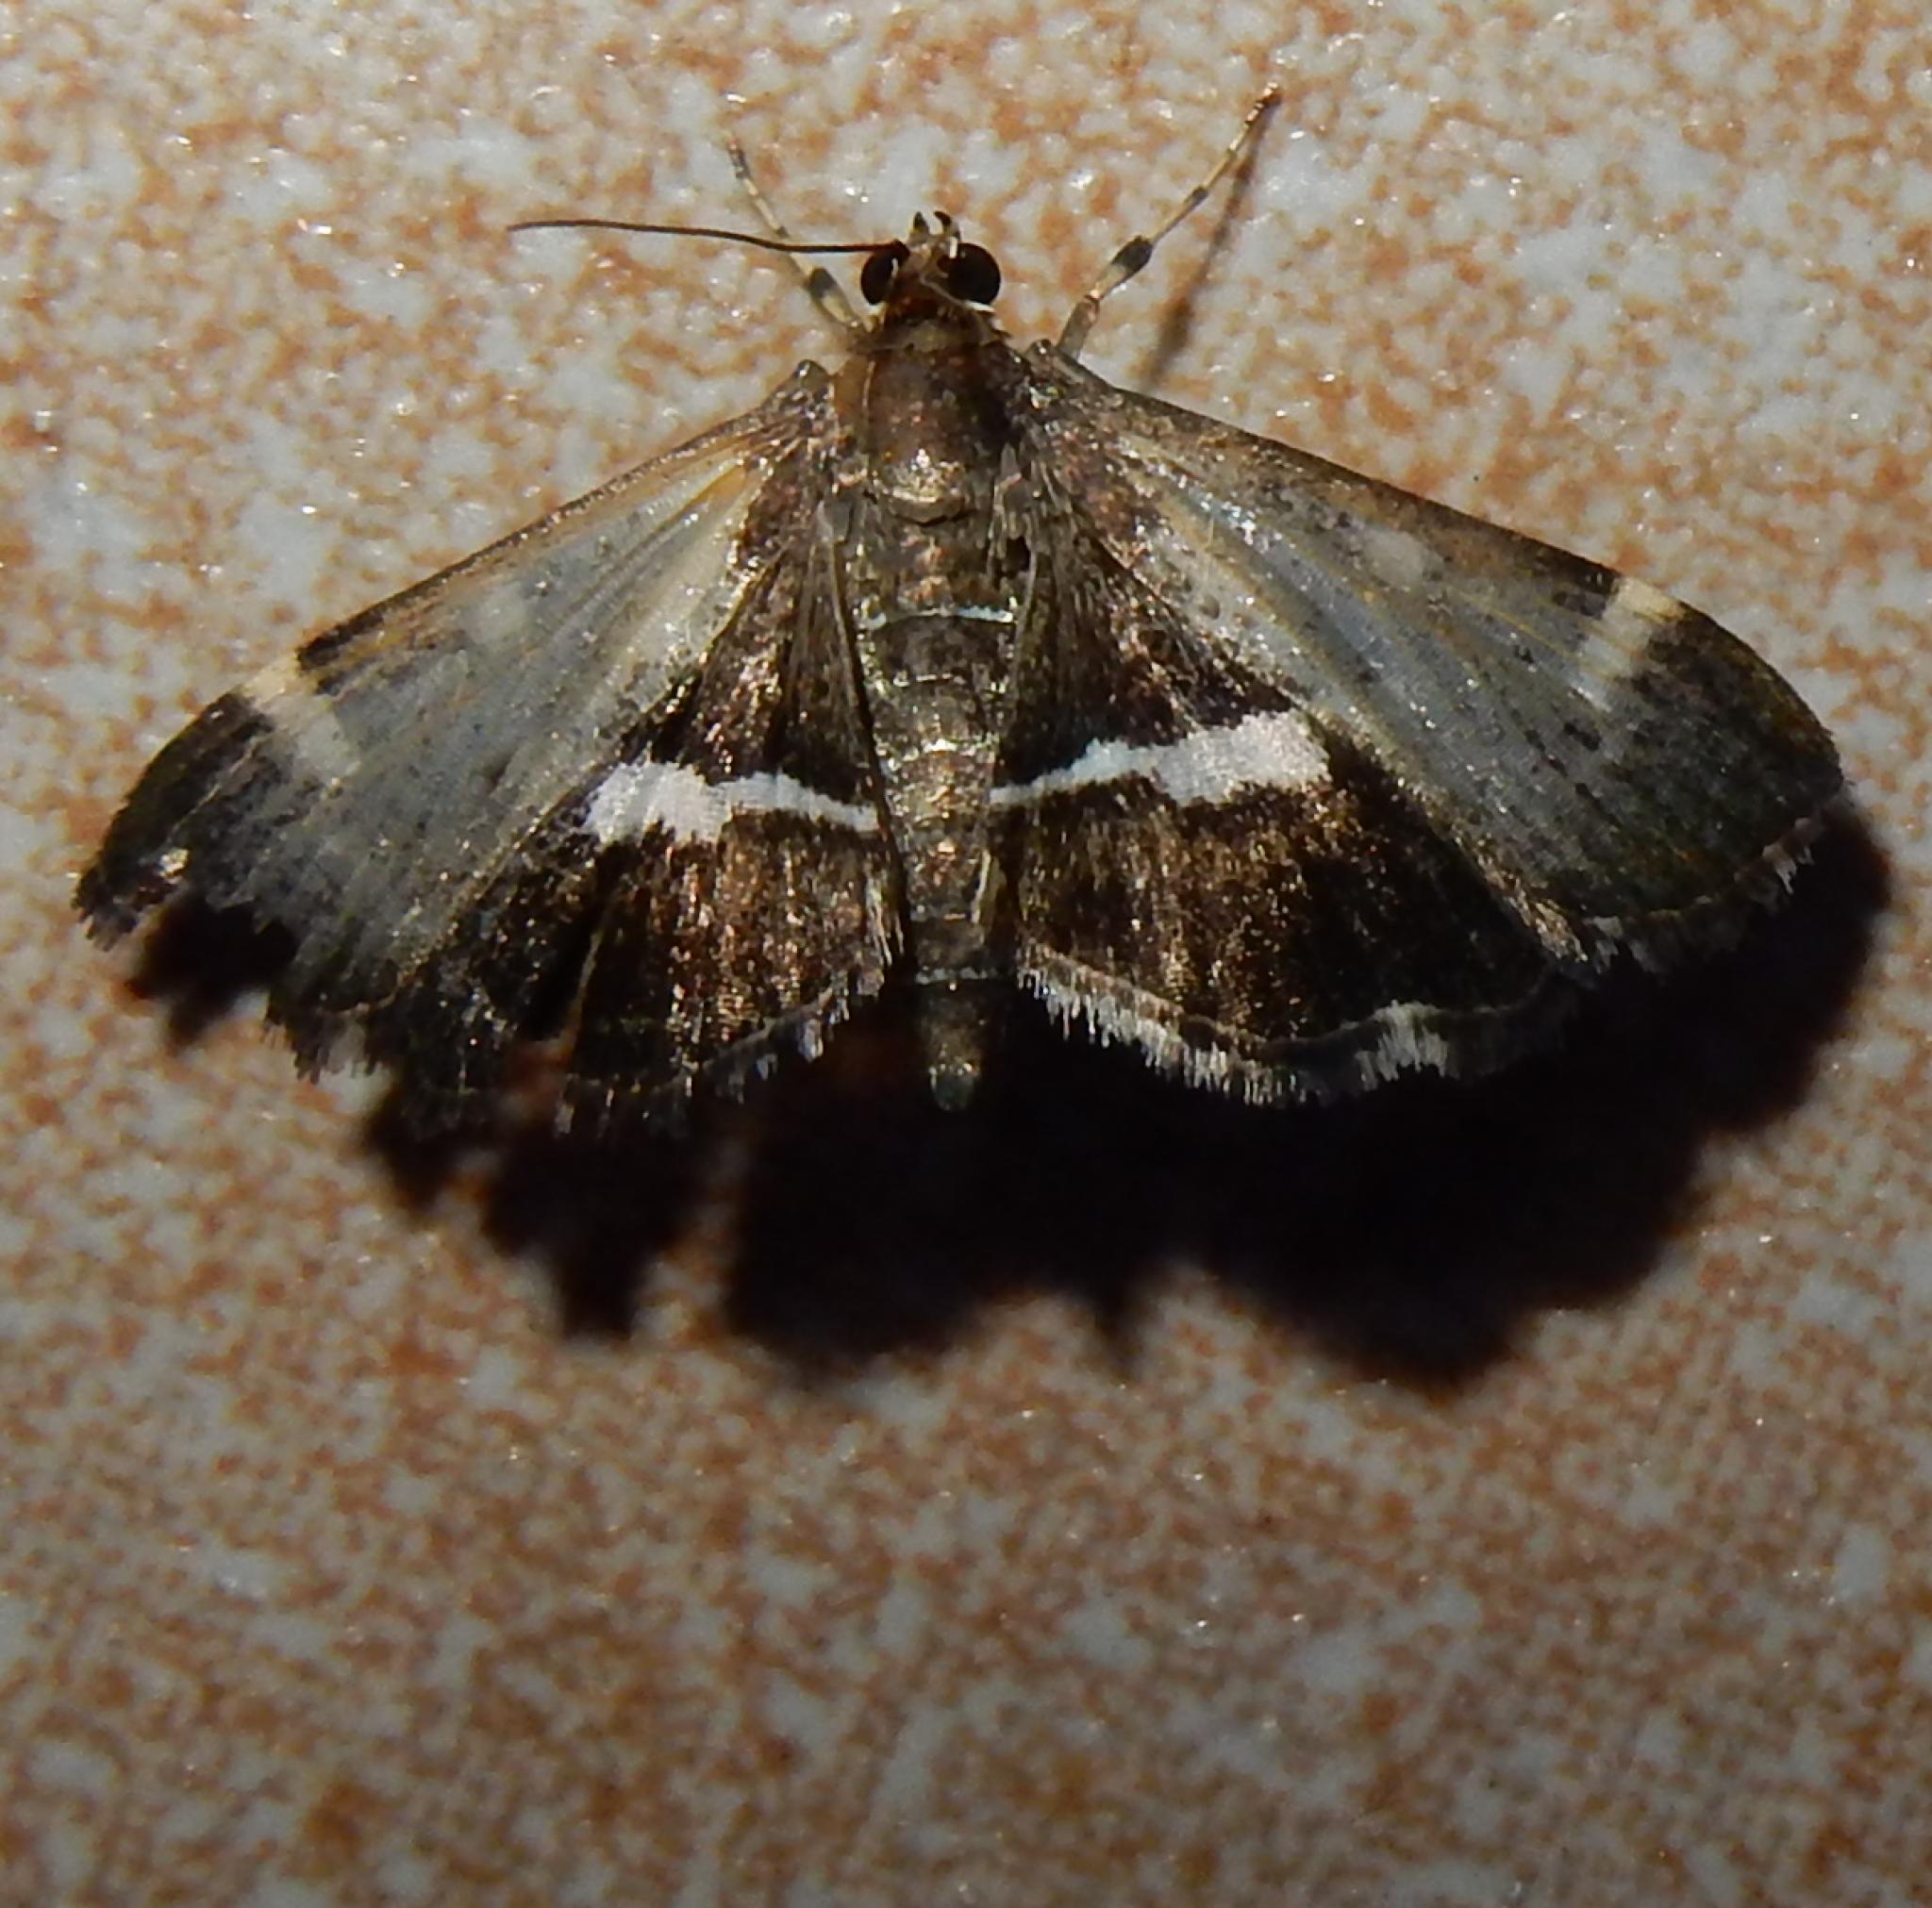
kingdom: Animalia
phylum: Arthropoda
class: Insecta
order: Lepidoptera
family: Crambidae
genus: Hymenia
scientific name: Hymenia perspectalis
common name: Spotted beet webworm
